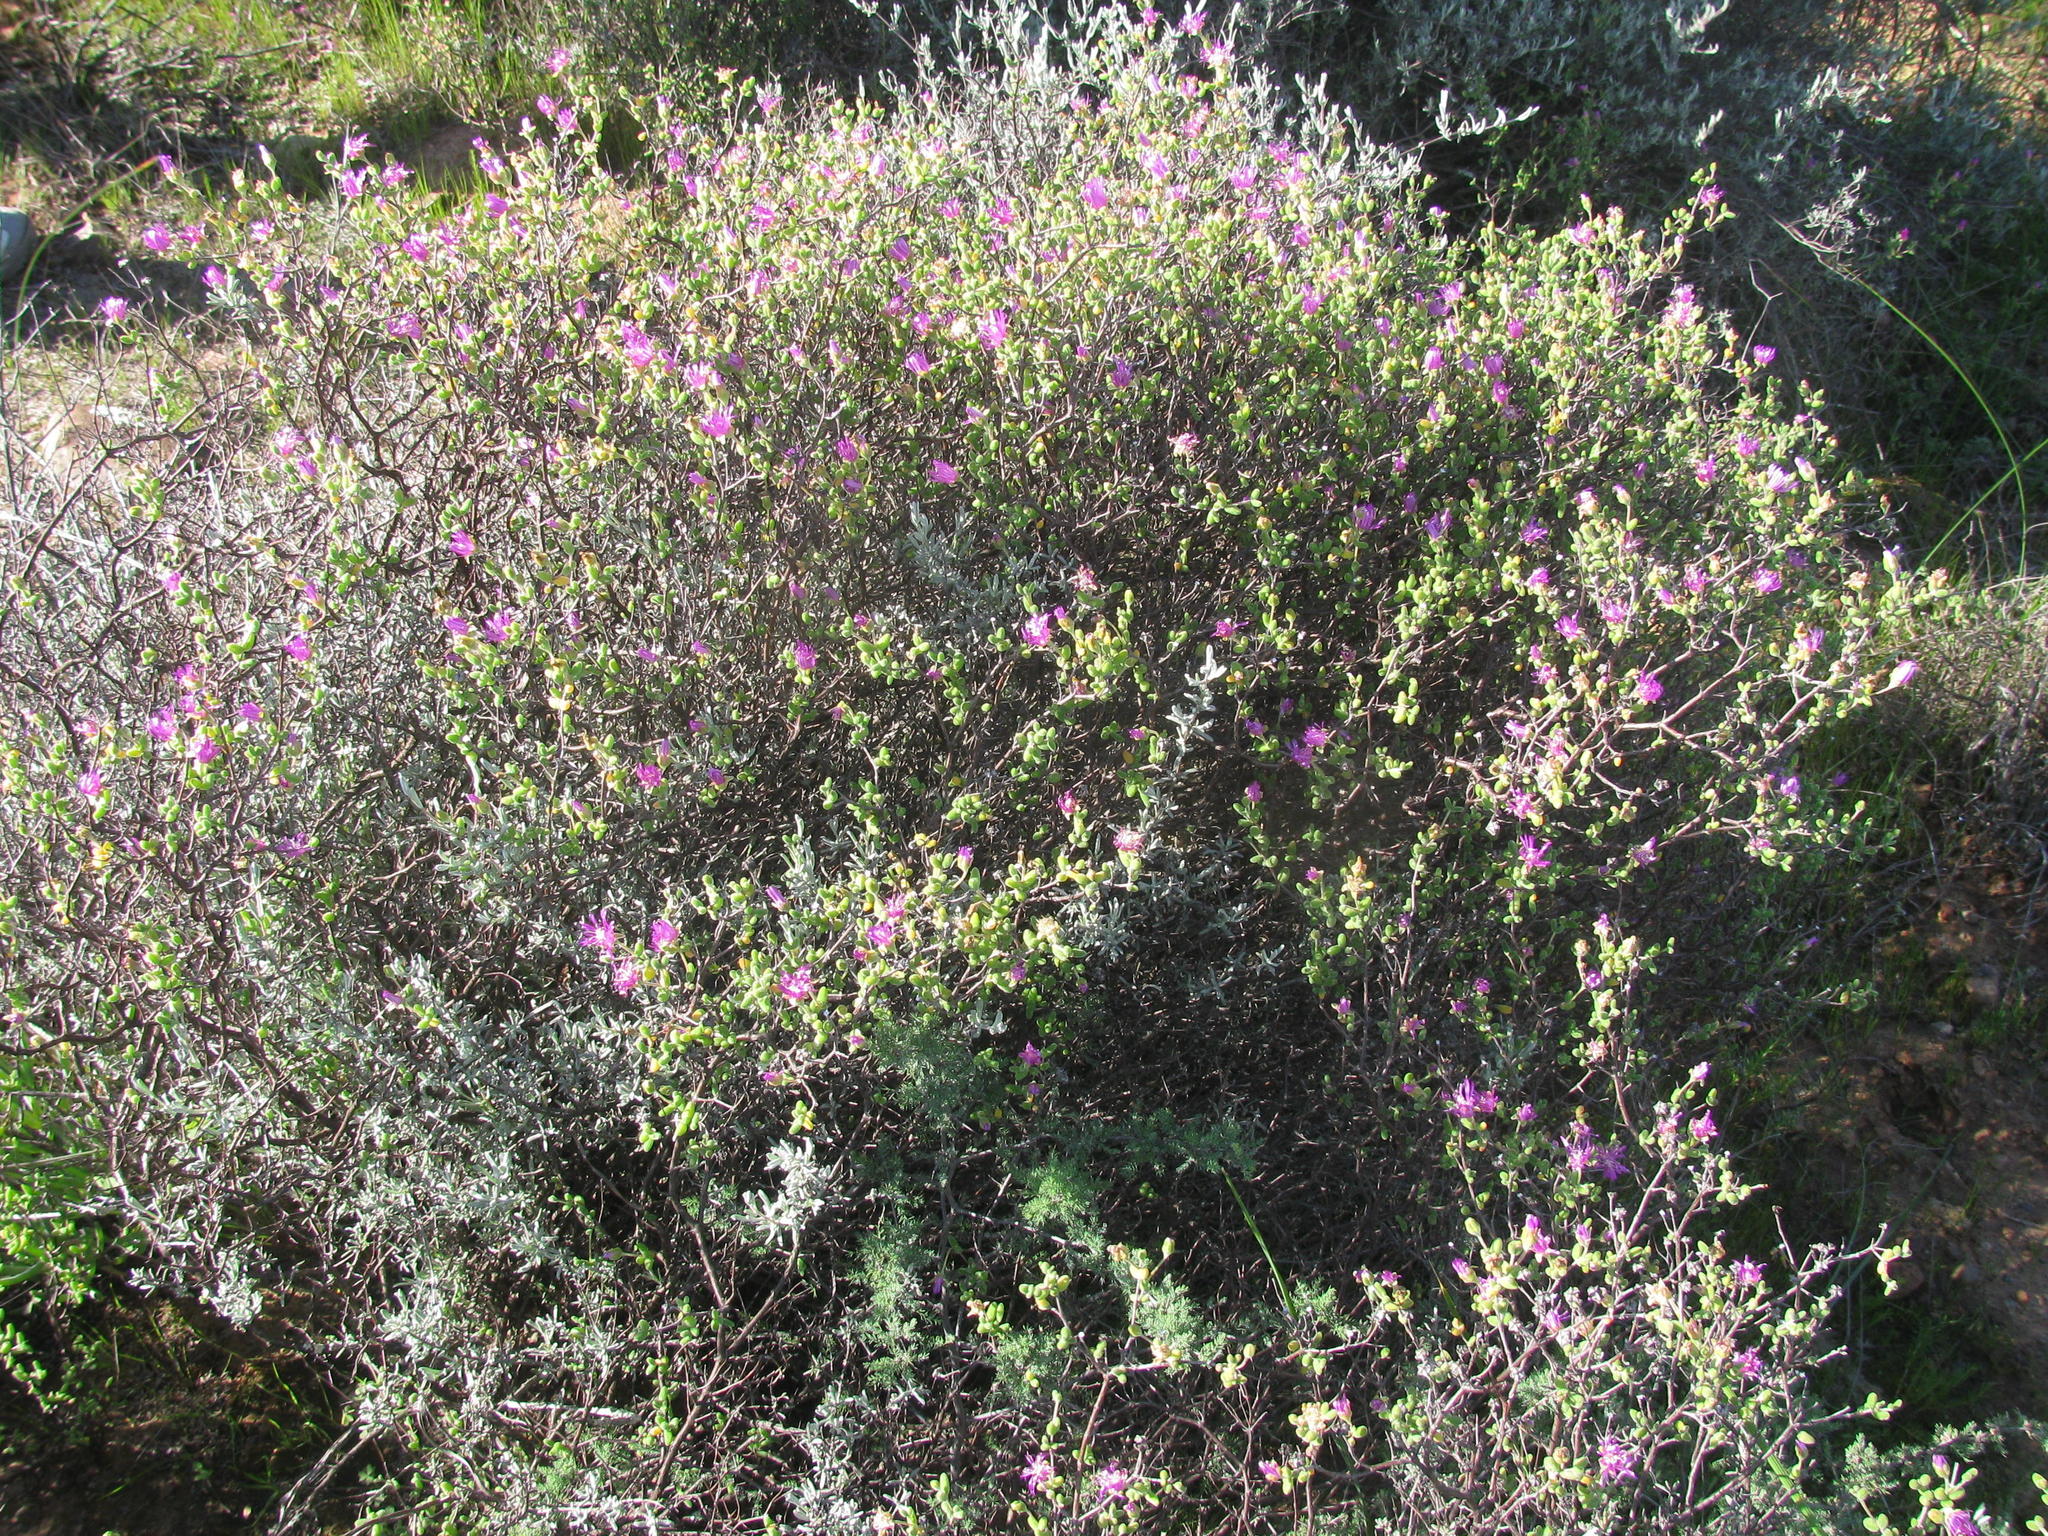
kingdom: Plantae
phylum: Tracheophyta
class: Magnoliopsida
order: Caryophyllales
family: Aizoaceae
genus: Drosanthemum
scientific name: Drosanthemum globosum
